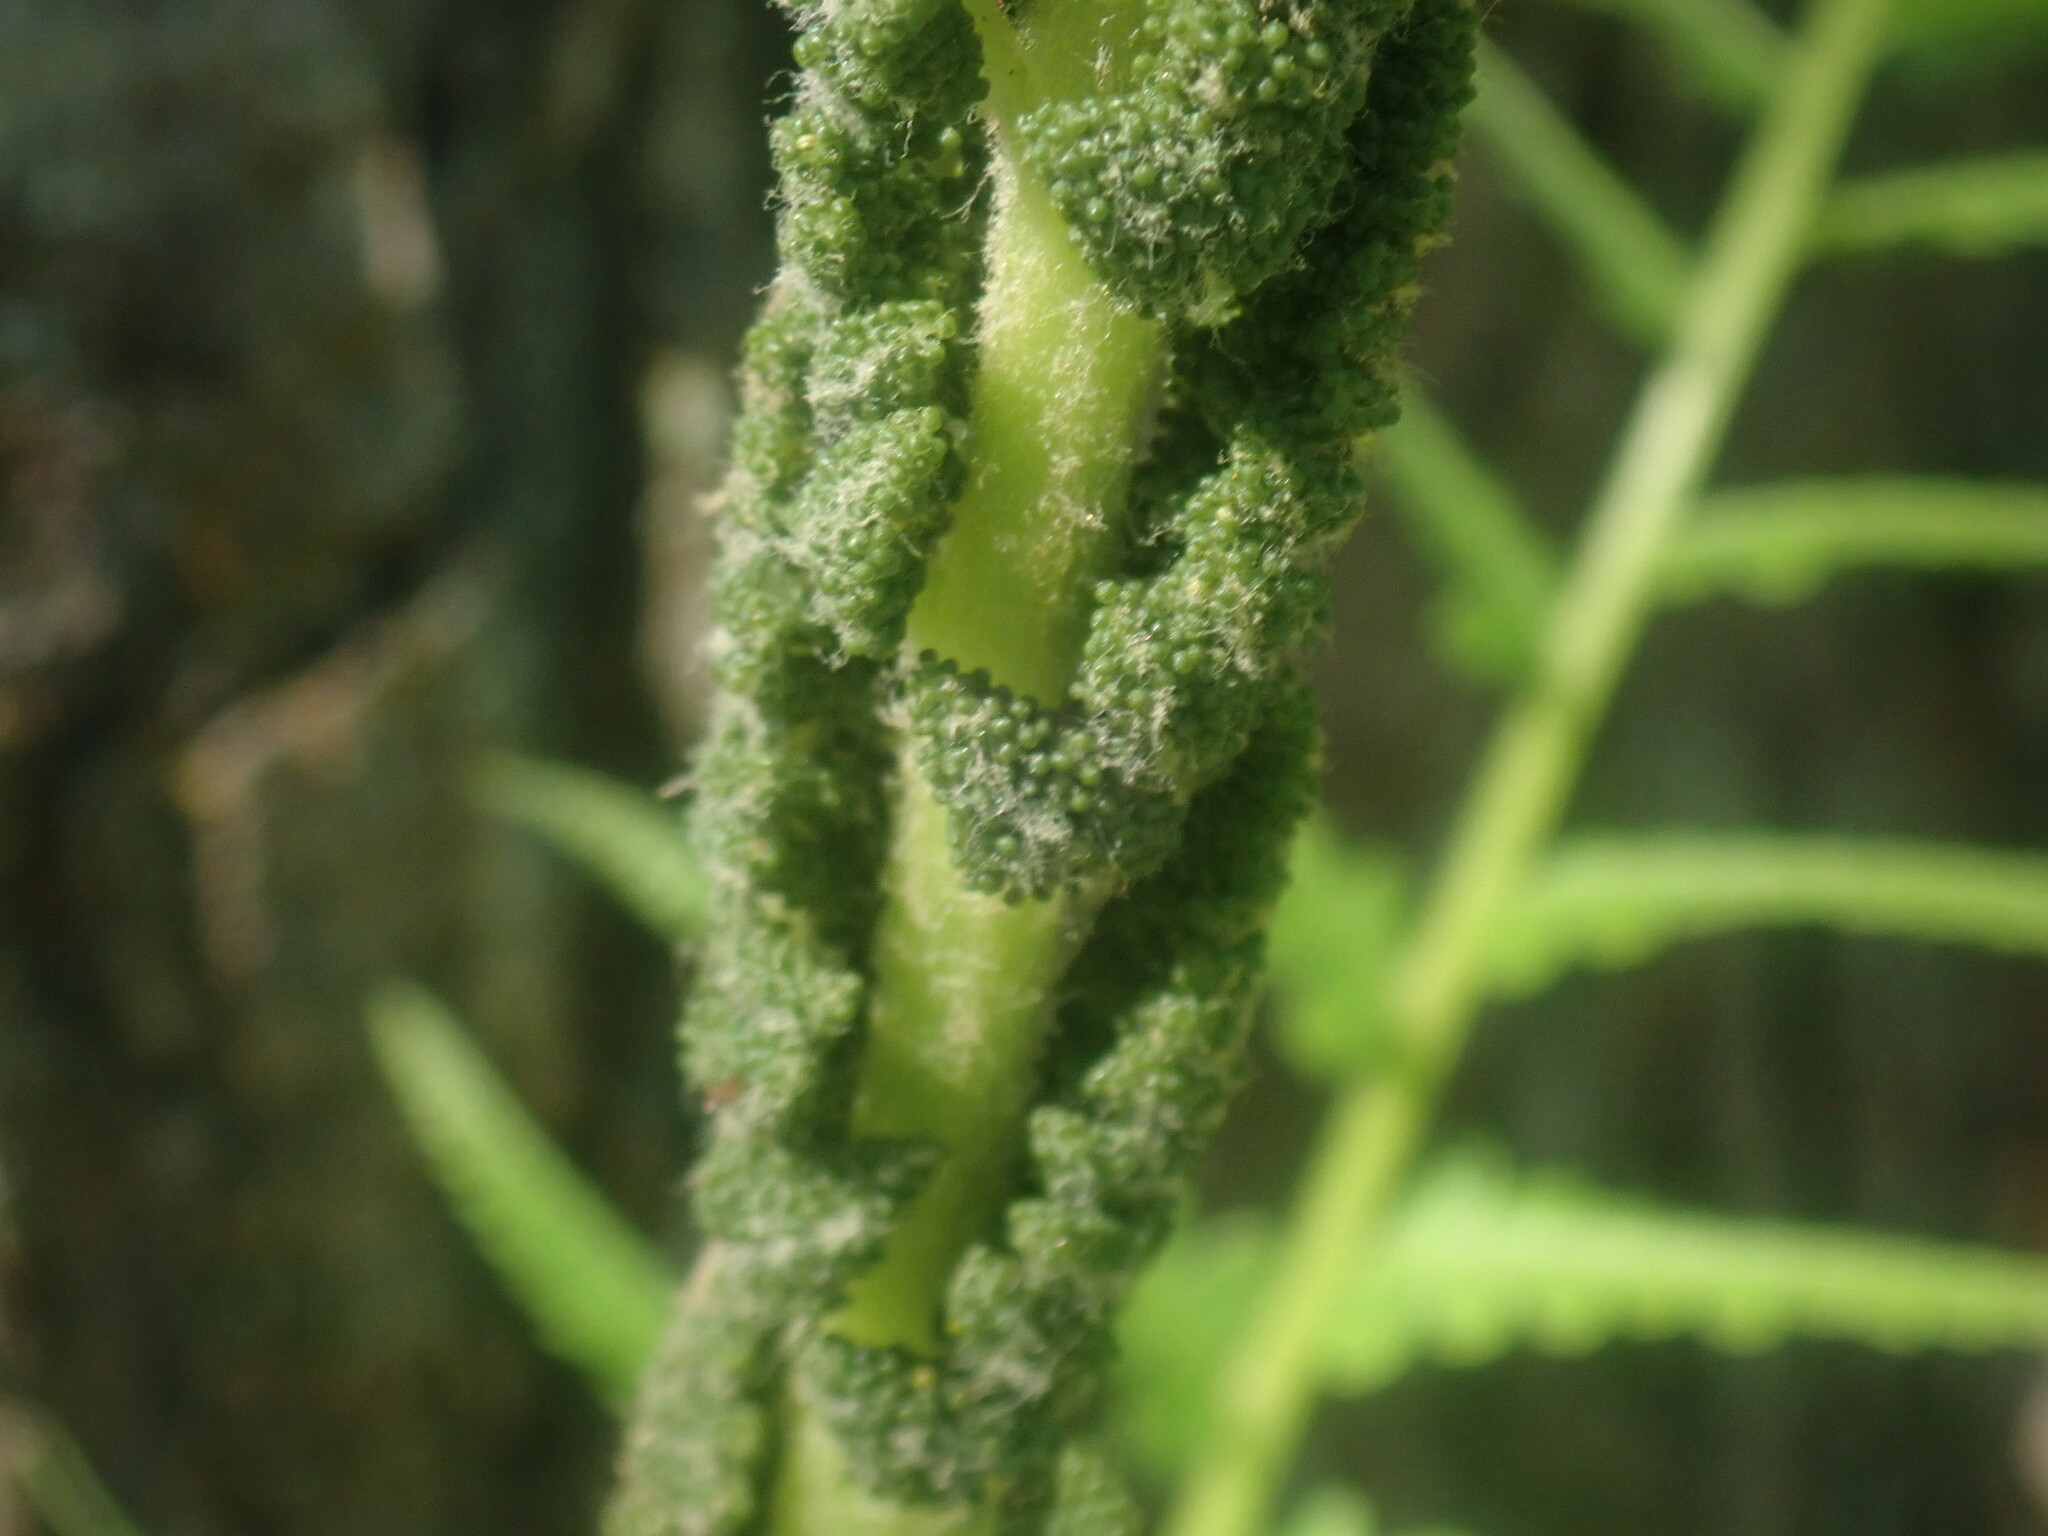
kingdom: Plantae
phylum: Tracheophyta
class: Polypodiopsida
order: Osmundales
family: Osmundaceae
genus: Osmundastrum
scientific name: Osmundastrum cinnamomeum
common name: Cinnamon fern
